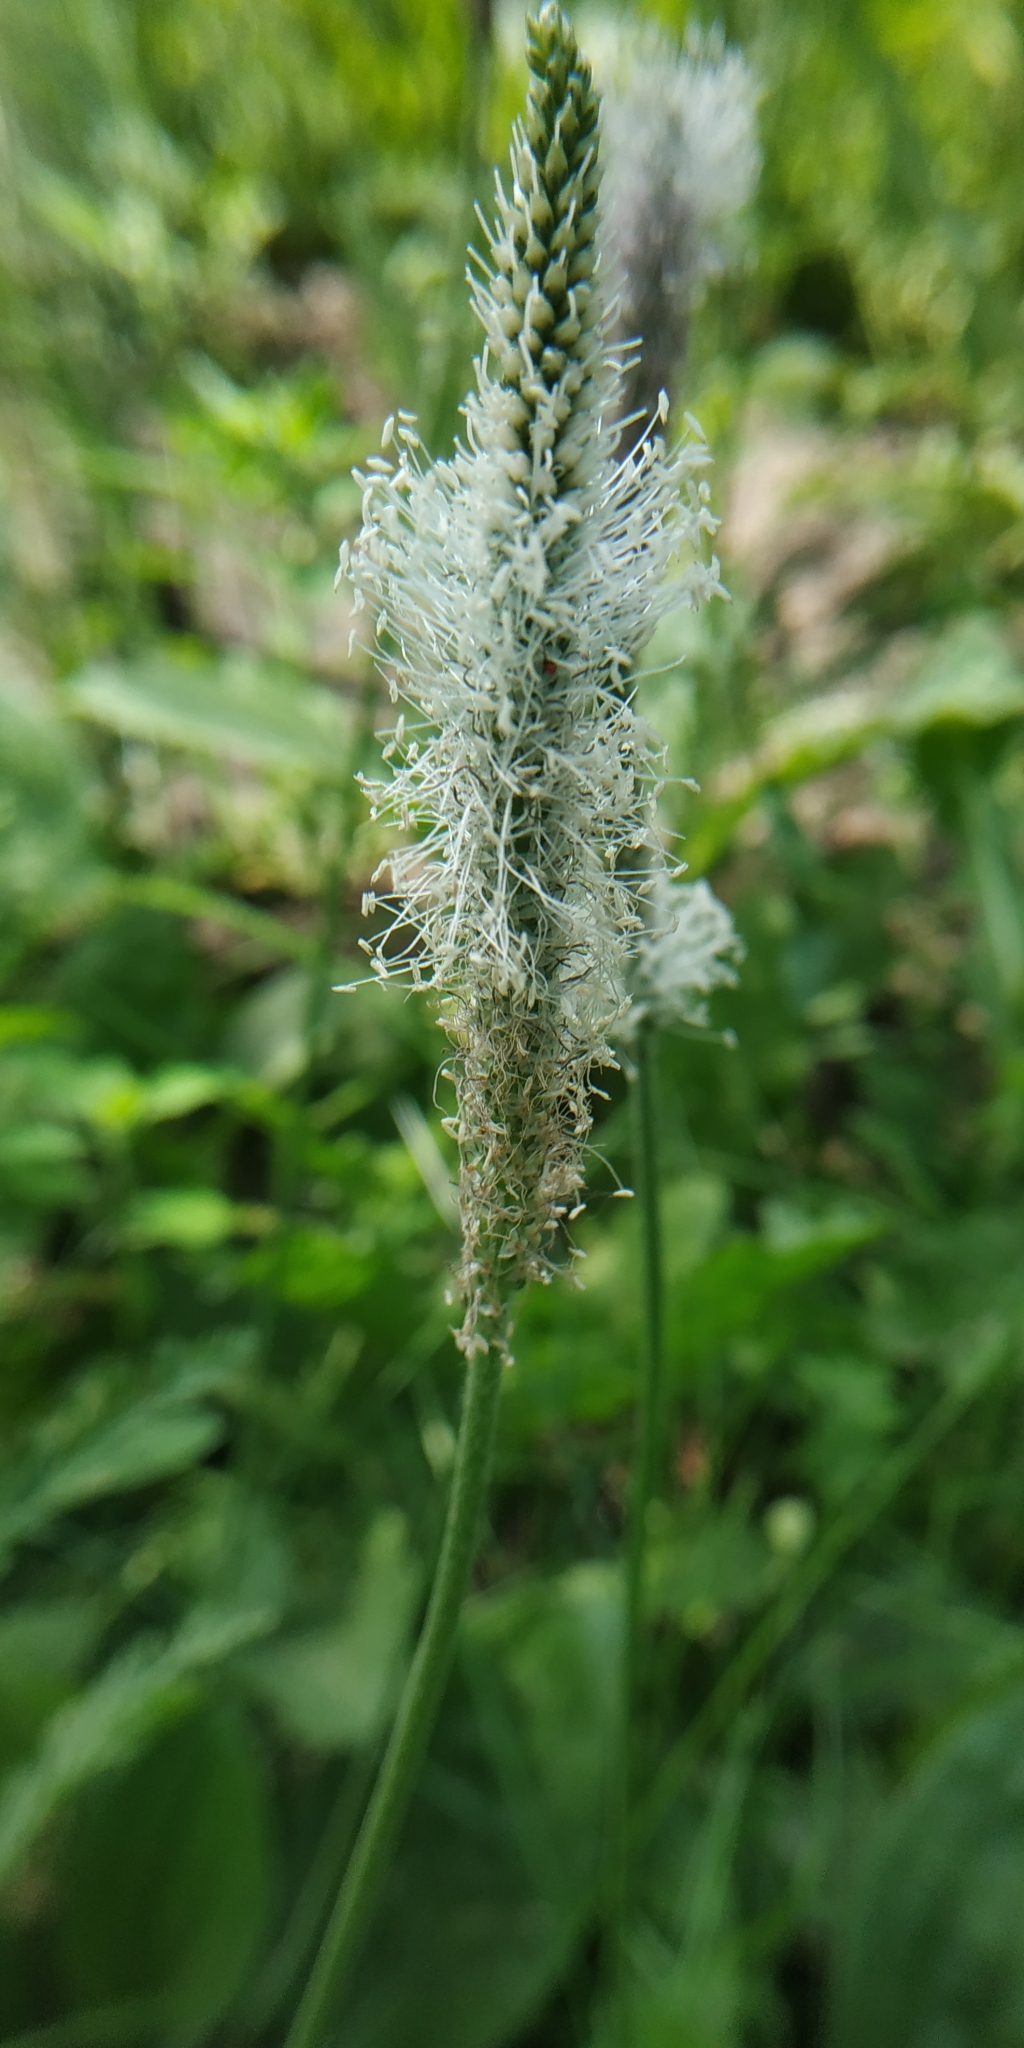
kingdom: Plantae
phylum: Tracheophyta
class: Magnoliopsida
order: Lamiales
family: Plantaginaceae
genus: Plantago
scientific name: Plantago urvillei
